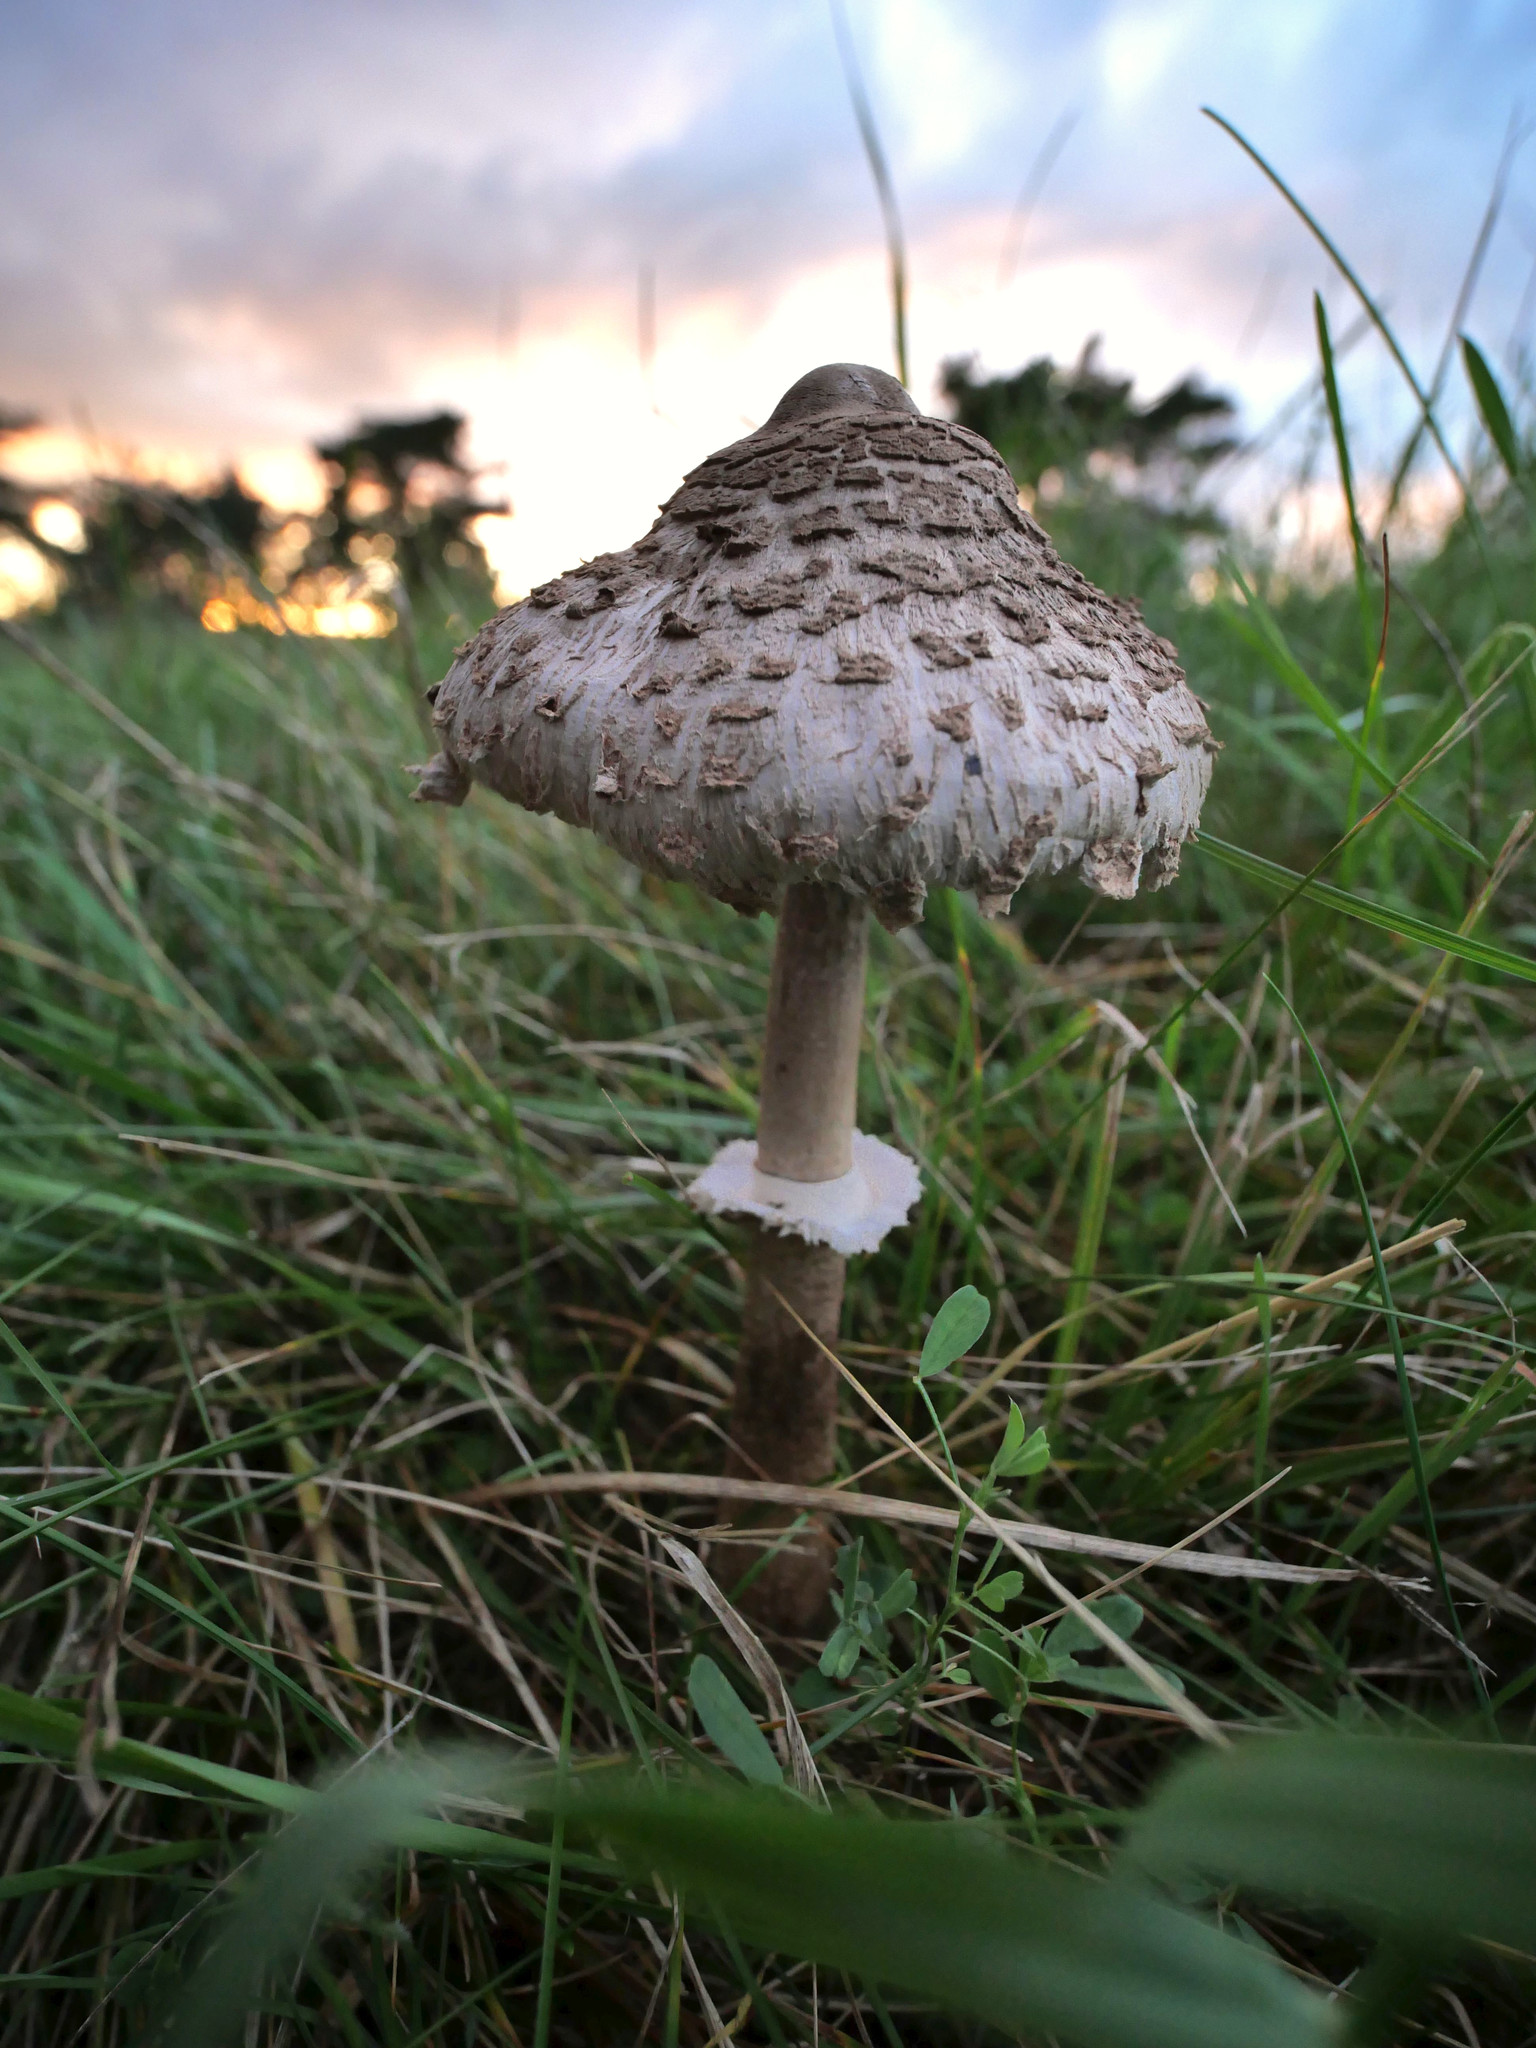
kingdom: Fungi
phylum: Basidiomycota
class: Agaricomycetes
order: Agaricales
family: Agaricaceae
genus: Macrolepiota
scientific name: Macrolepiota procera
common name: Parasol
